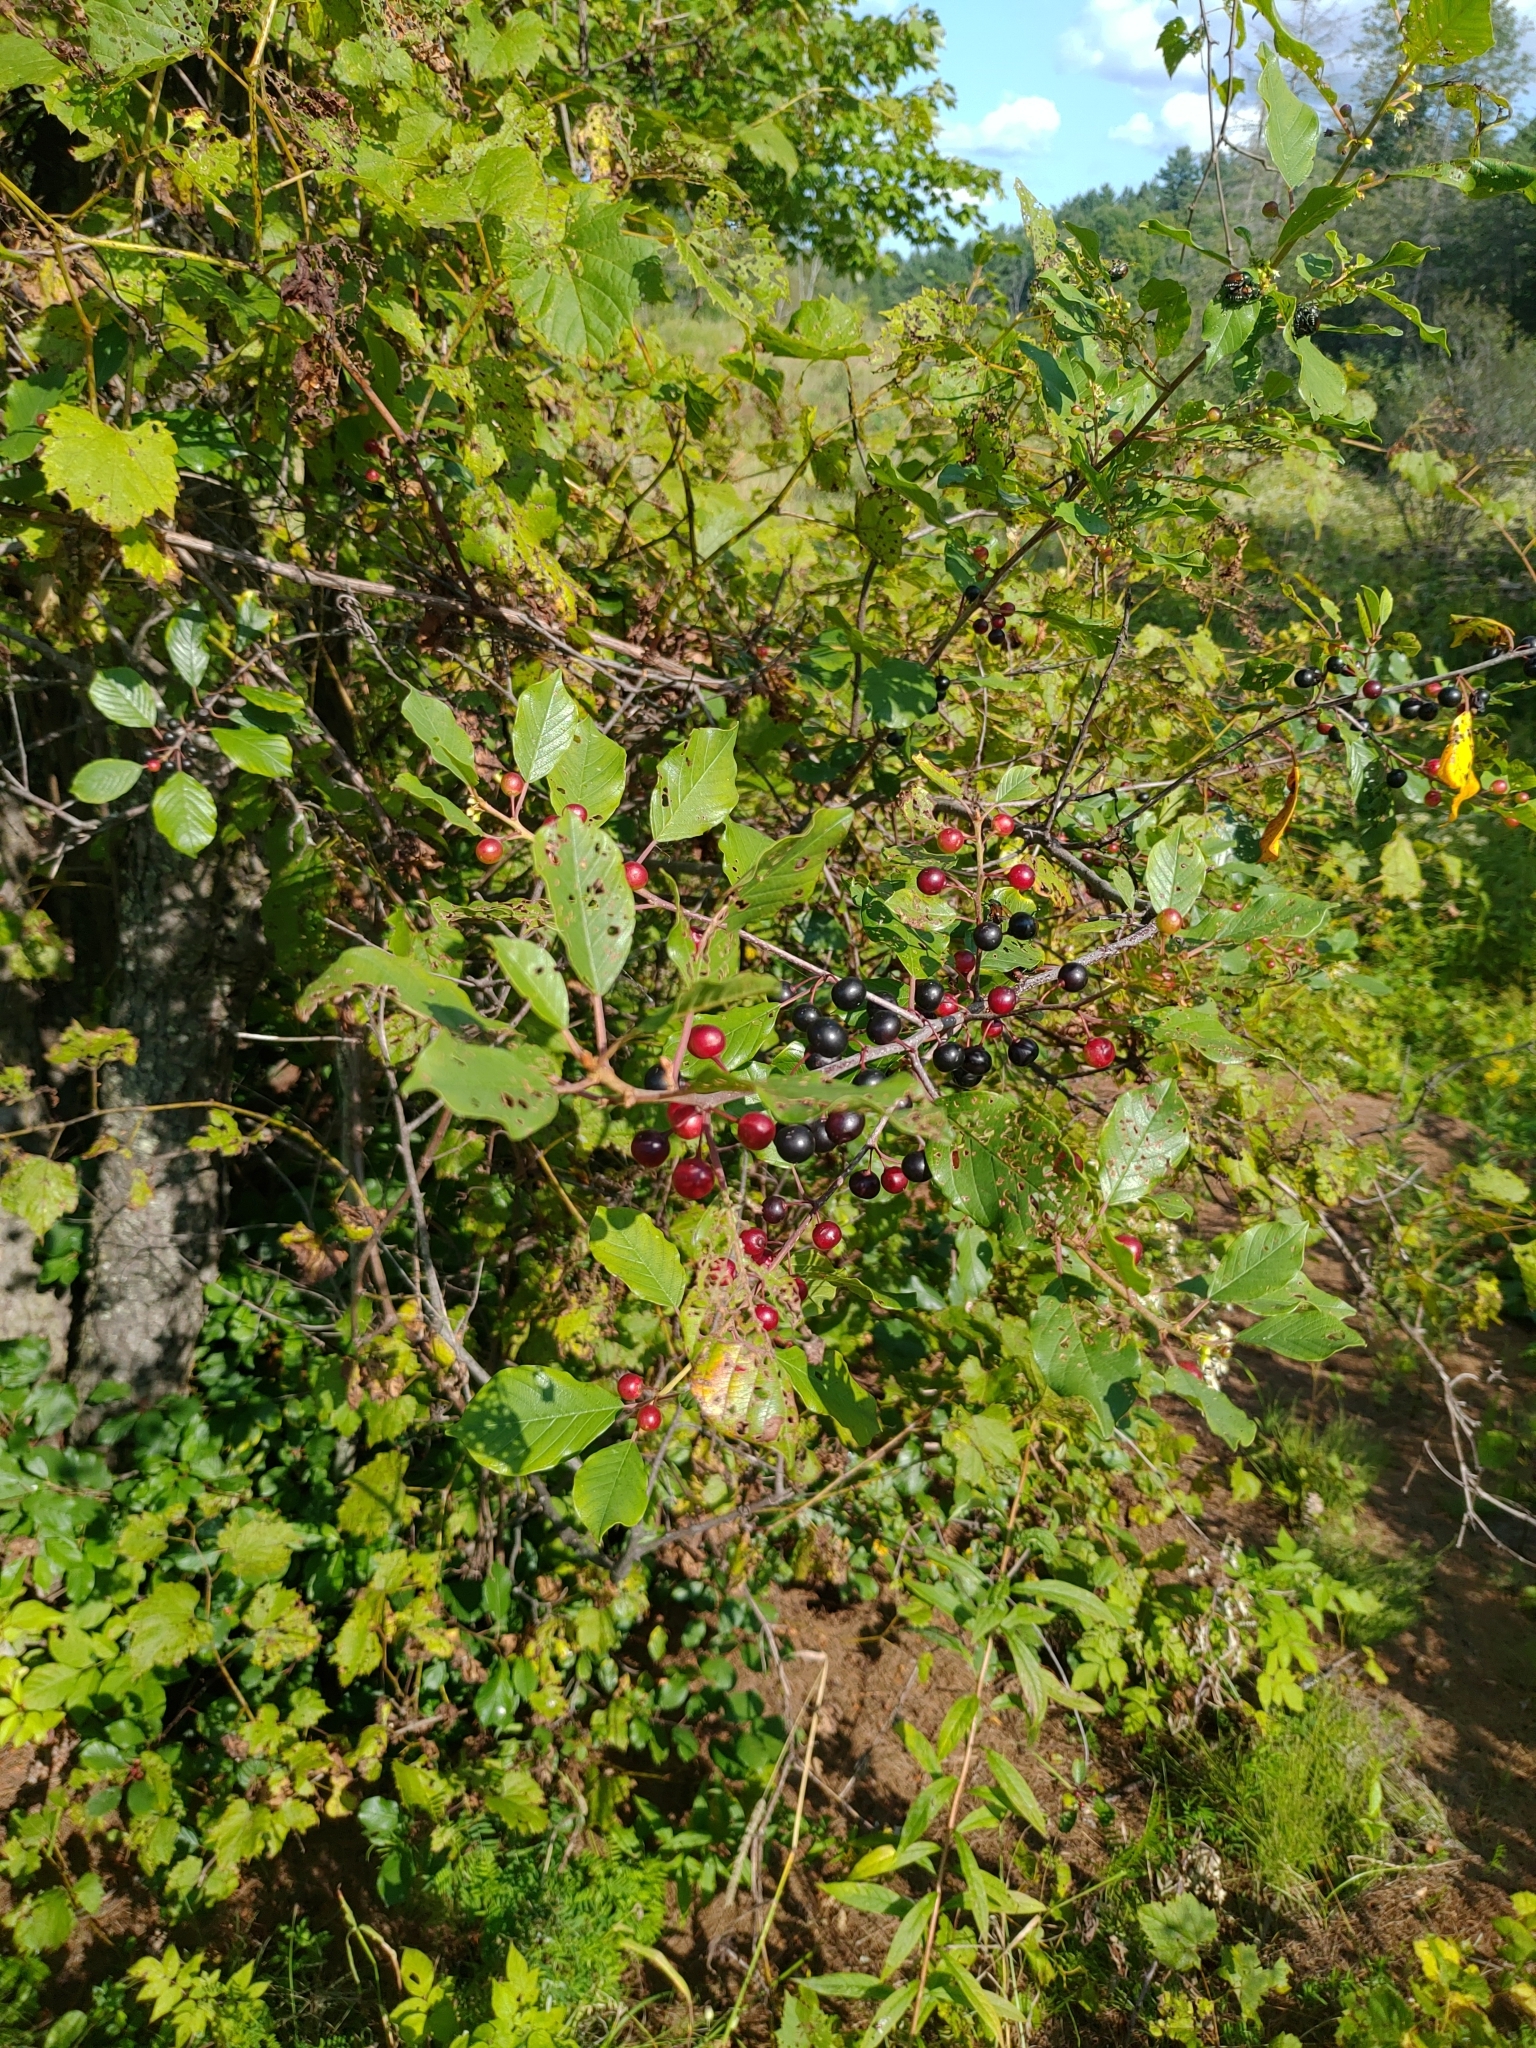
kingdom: Plantae
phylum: Tracheophyta
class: Magnoliopsida
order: Rosales
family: Rhamnaceae
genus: Frangula
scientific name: Frangula alnus
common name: Alder buckthorn
